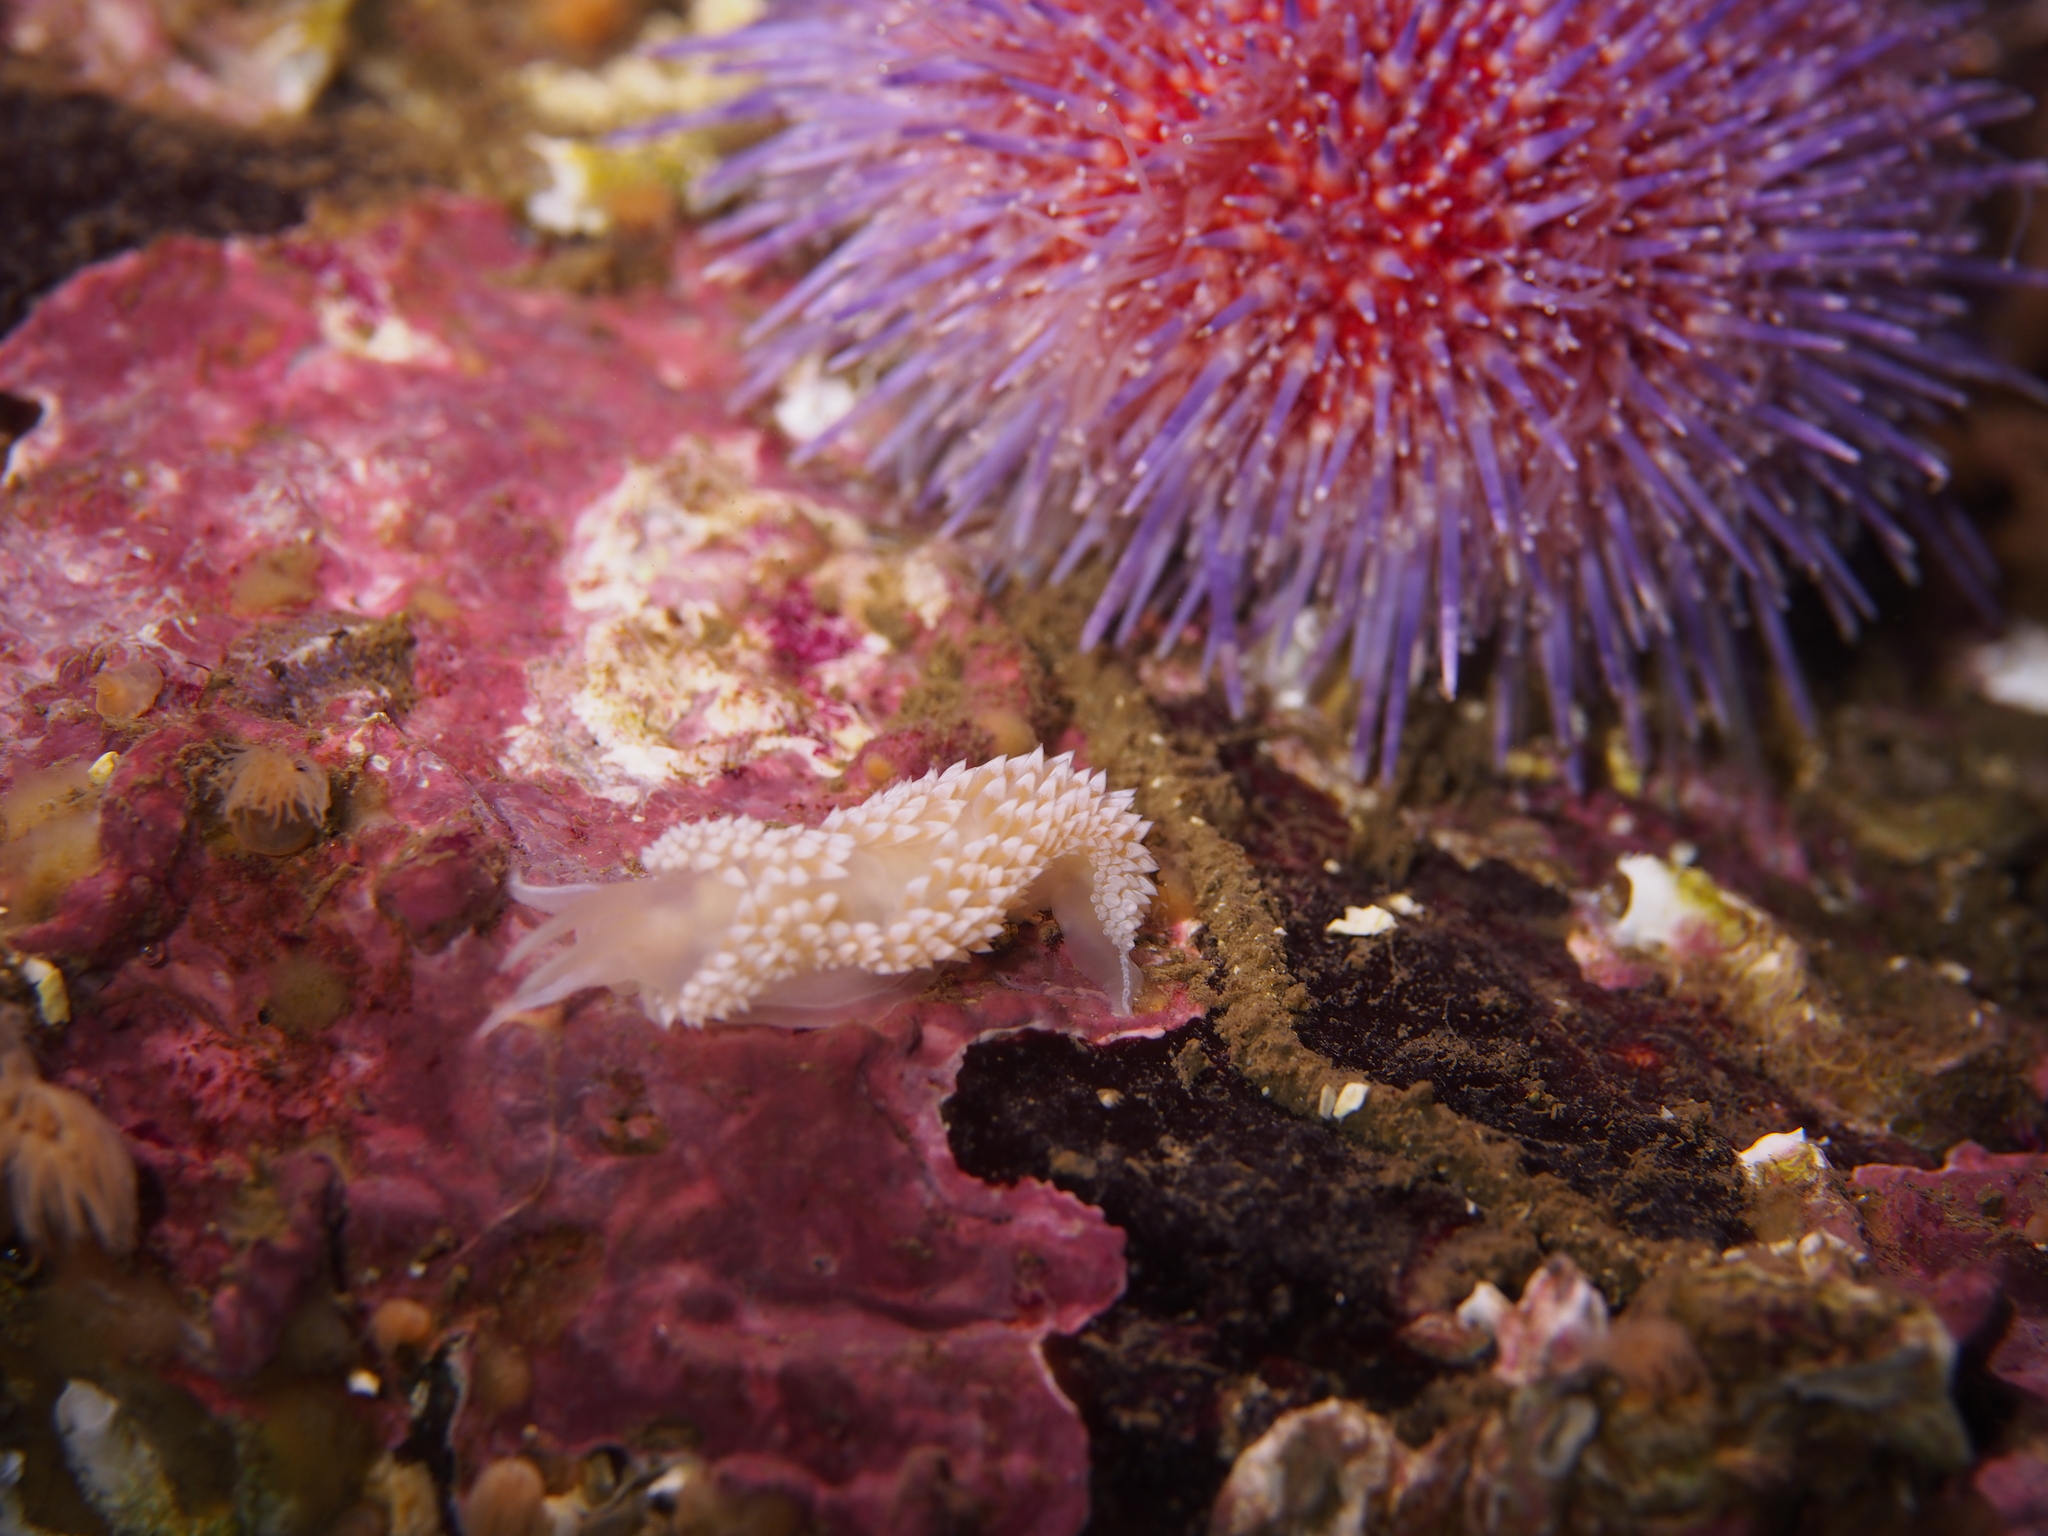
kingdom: Animalia
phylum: Mollusca
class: Gastropoda
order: Nudibranchia
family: Coryphellidae
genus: Coryphella
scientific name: Coryphella verrucosa
